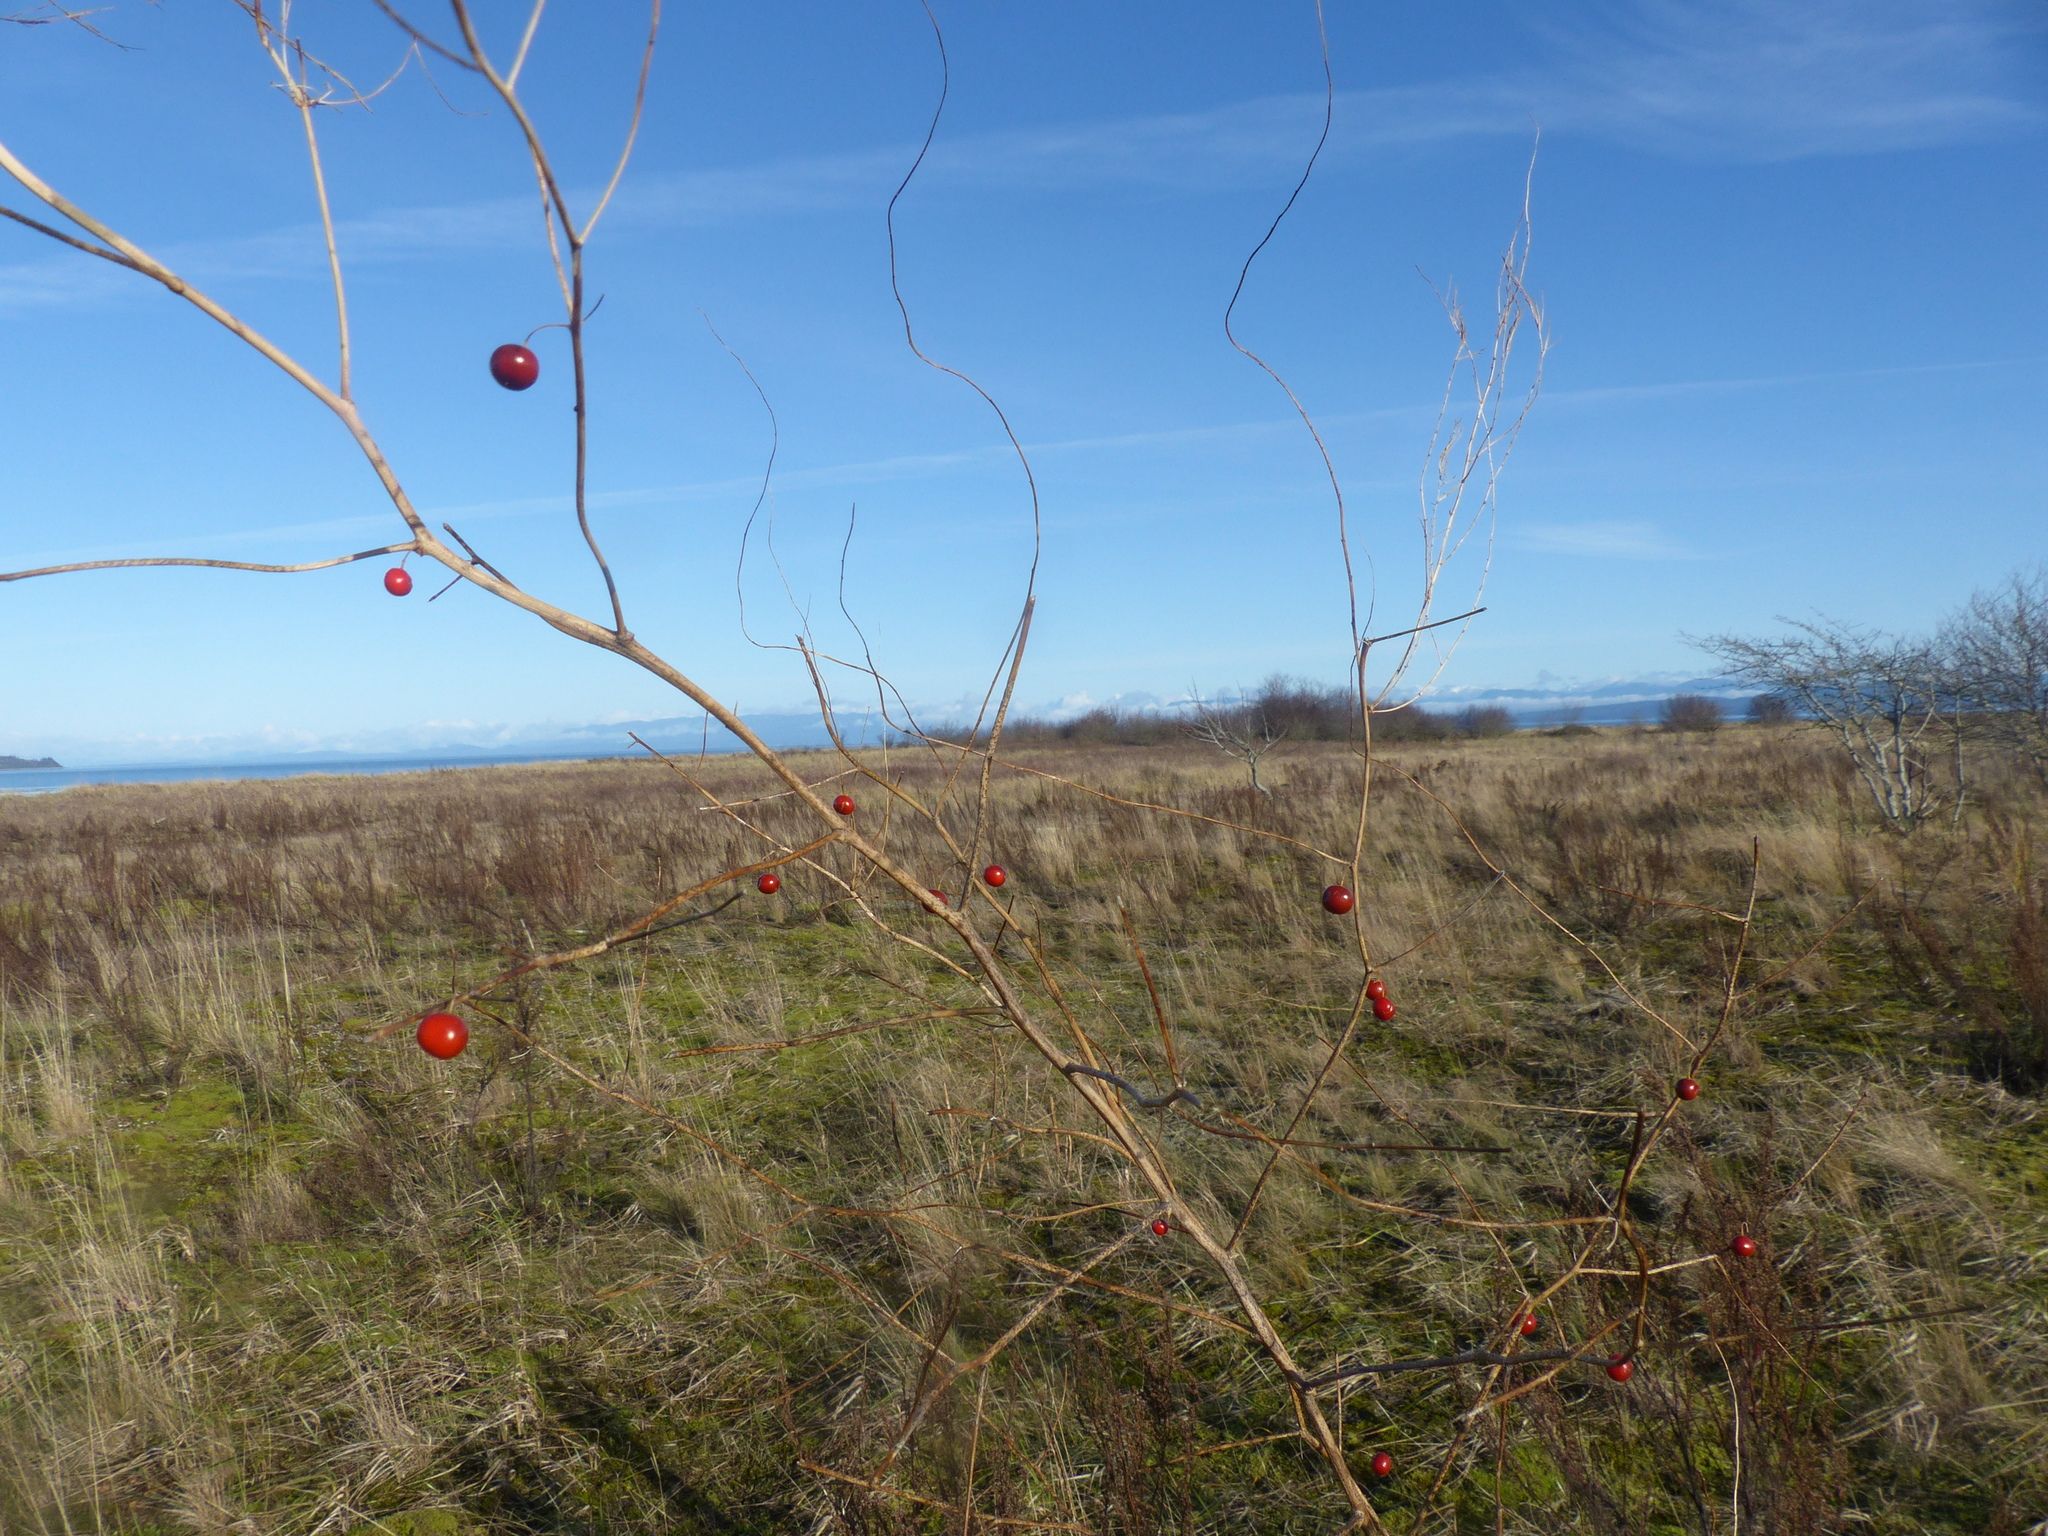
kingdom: Plantae
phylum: Tracheophyta
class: Liliopsida
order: Asparagales
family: Asparagaceae
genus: Asparagus
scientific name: Asparagus officinalis
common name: Garden asparagus
